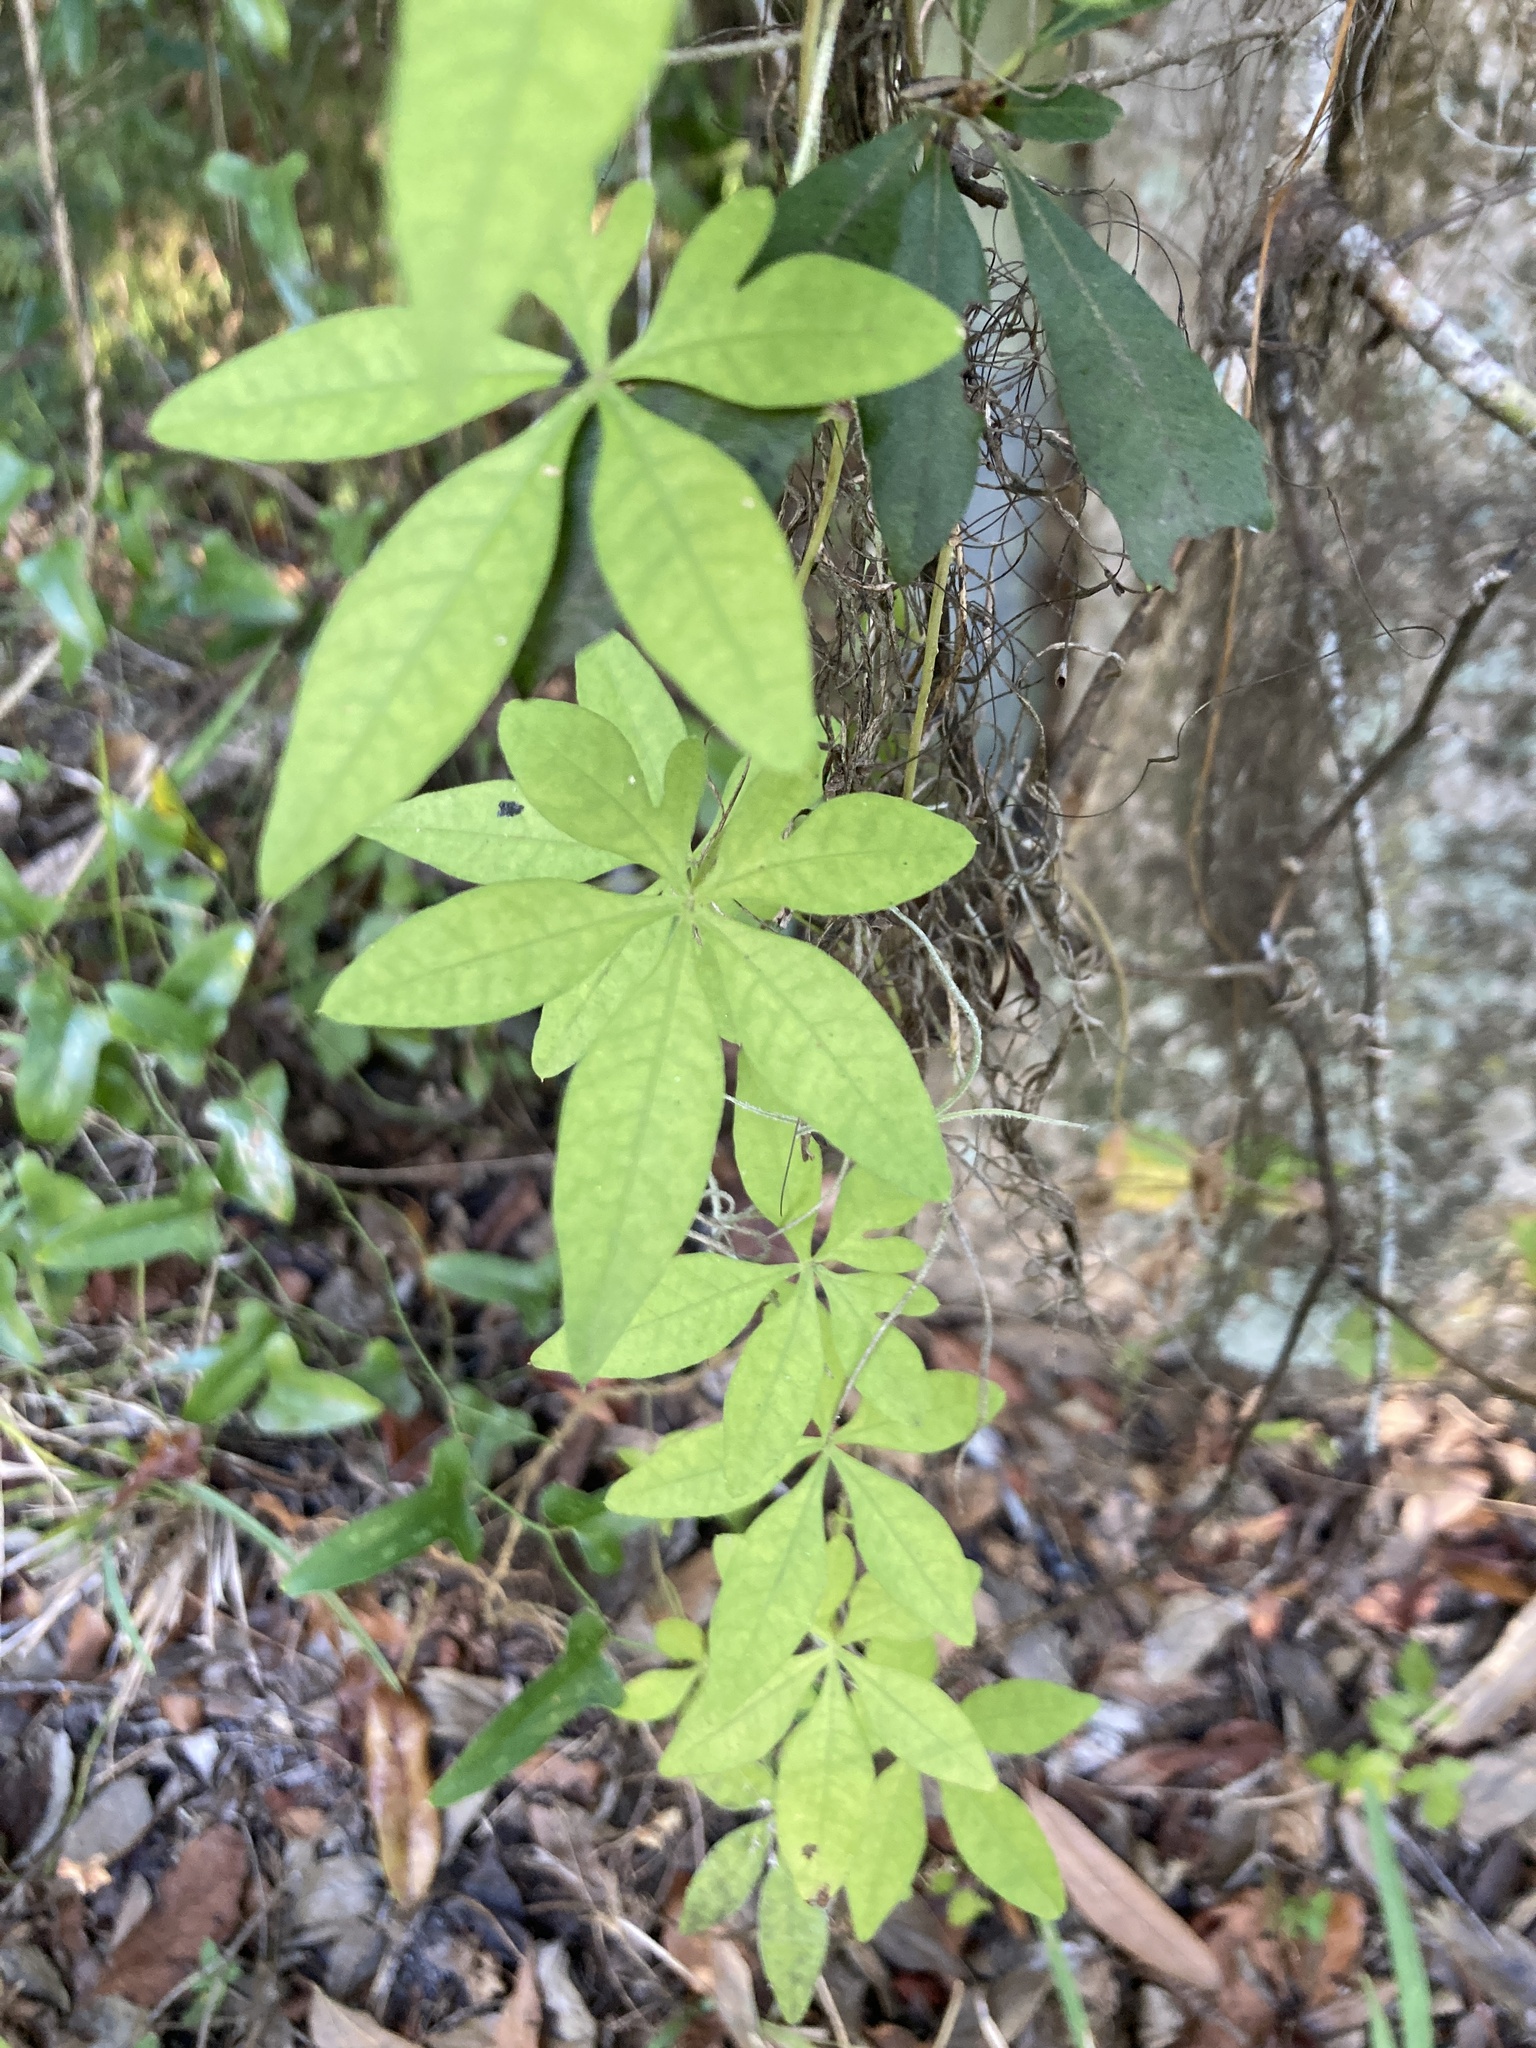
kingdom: Plantae
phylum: Tracheophyta
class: Magnoliopsida
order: Solanales
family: Convolvulaceae
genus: Ipomoea
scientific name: Ipomoea cairica
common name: Mile a minute vine
